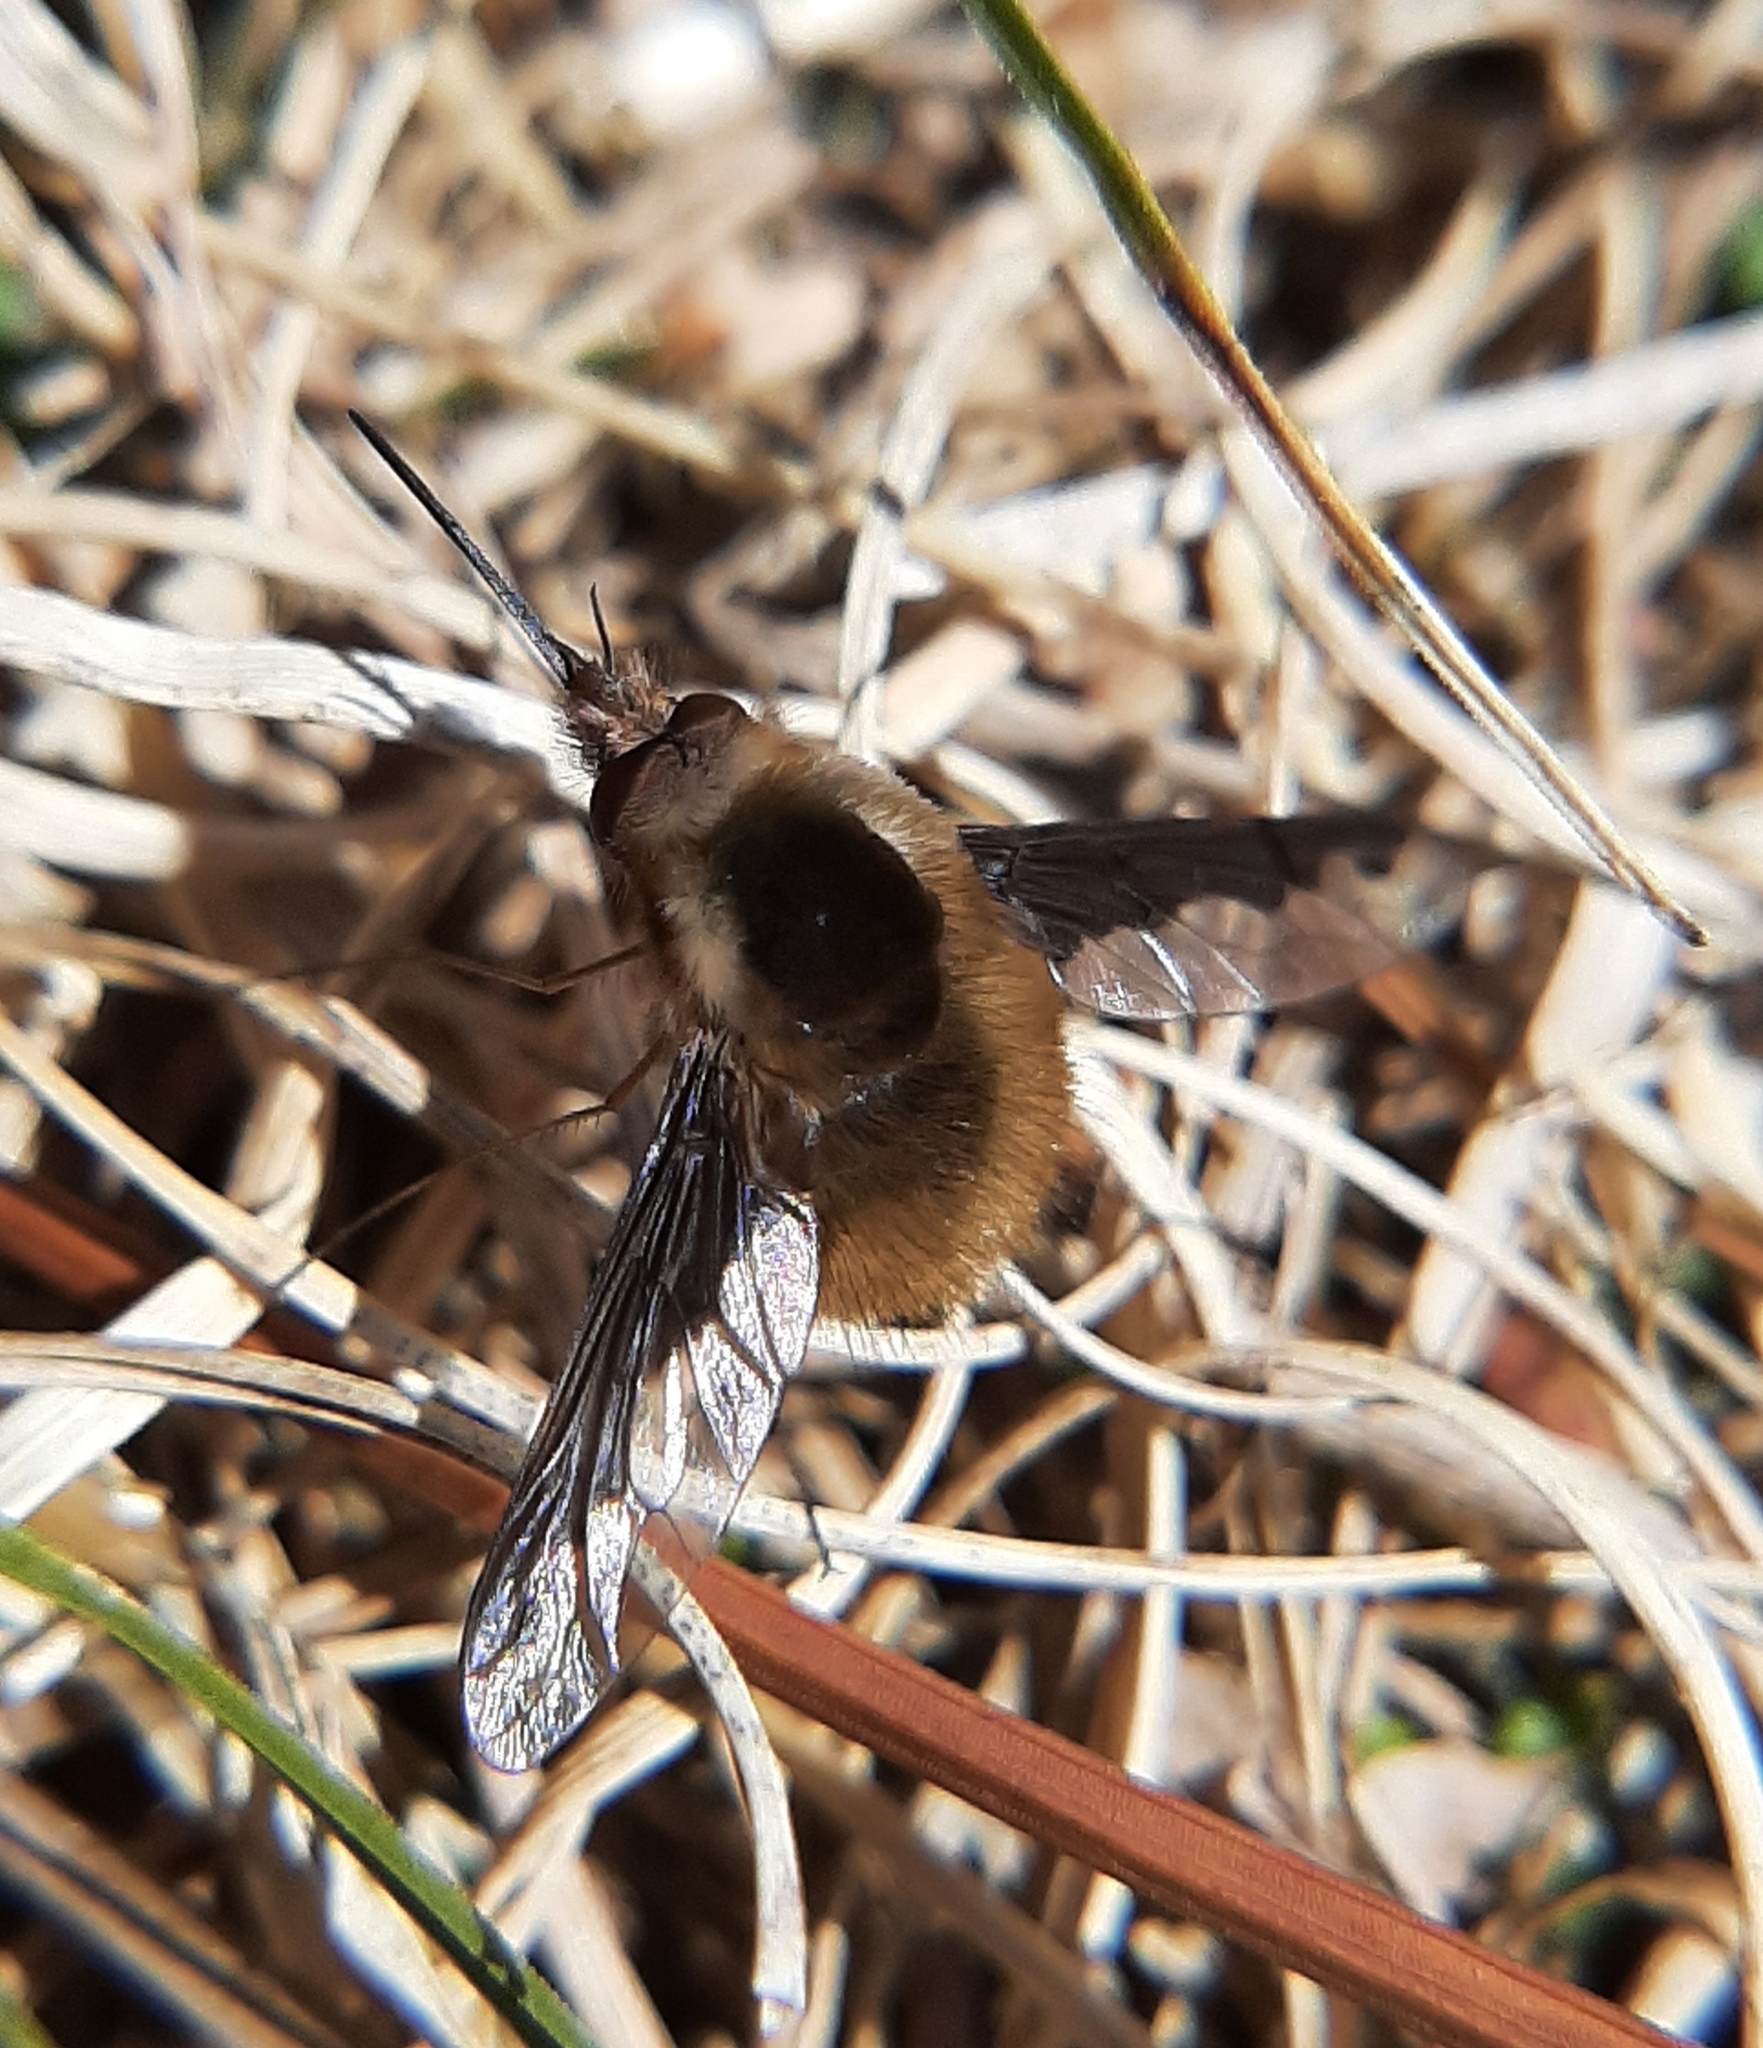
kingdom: Animalia
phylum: Arthropoda
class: Insecta
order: Diptera
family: Bombyliidae
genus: Bombylius
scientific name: Bombylius major
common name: Bee fly
